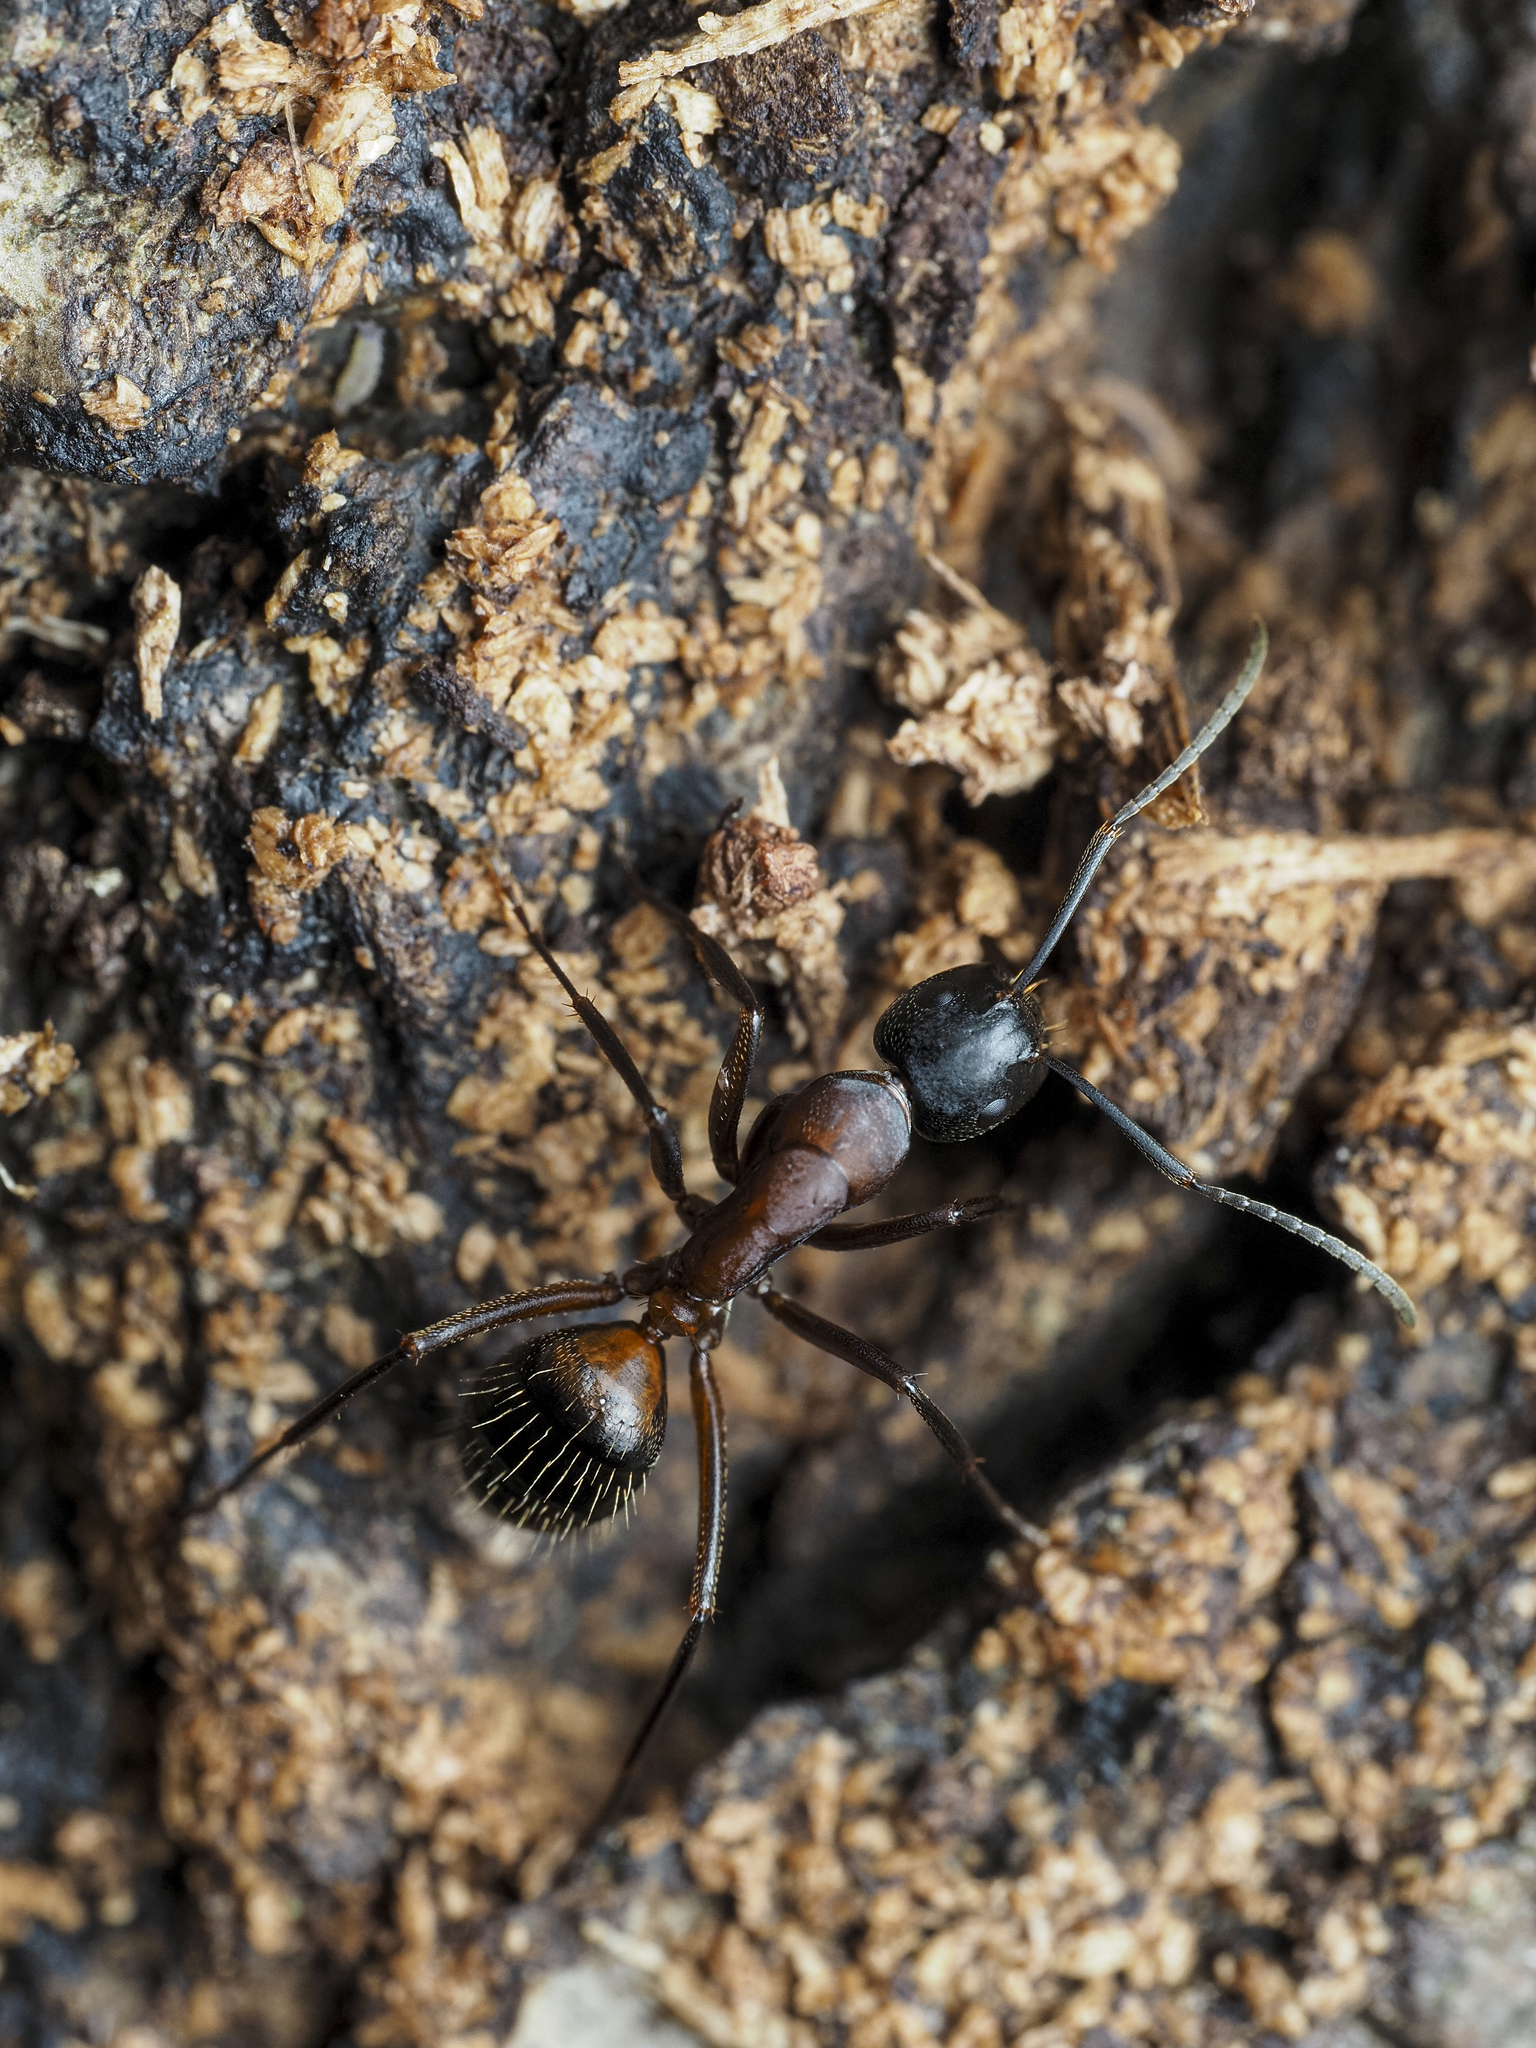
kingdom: Animalia
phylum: Arthropoda
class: Insecta
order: Hymenoptera
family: Formicidae
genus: Camponotus
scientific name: Camponotus ligniperdus
